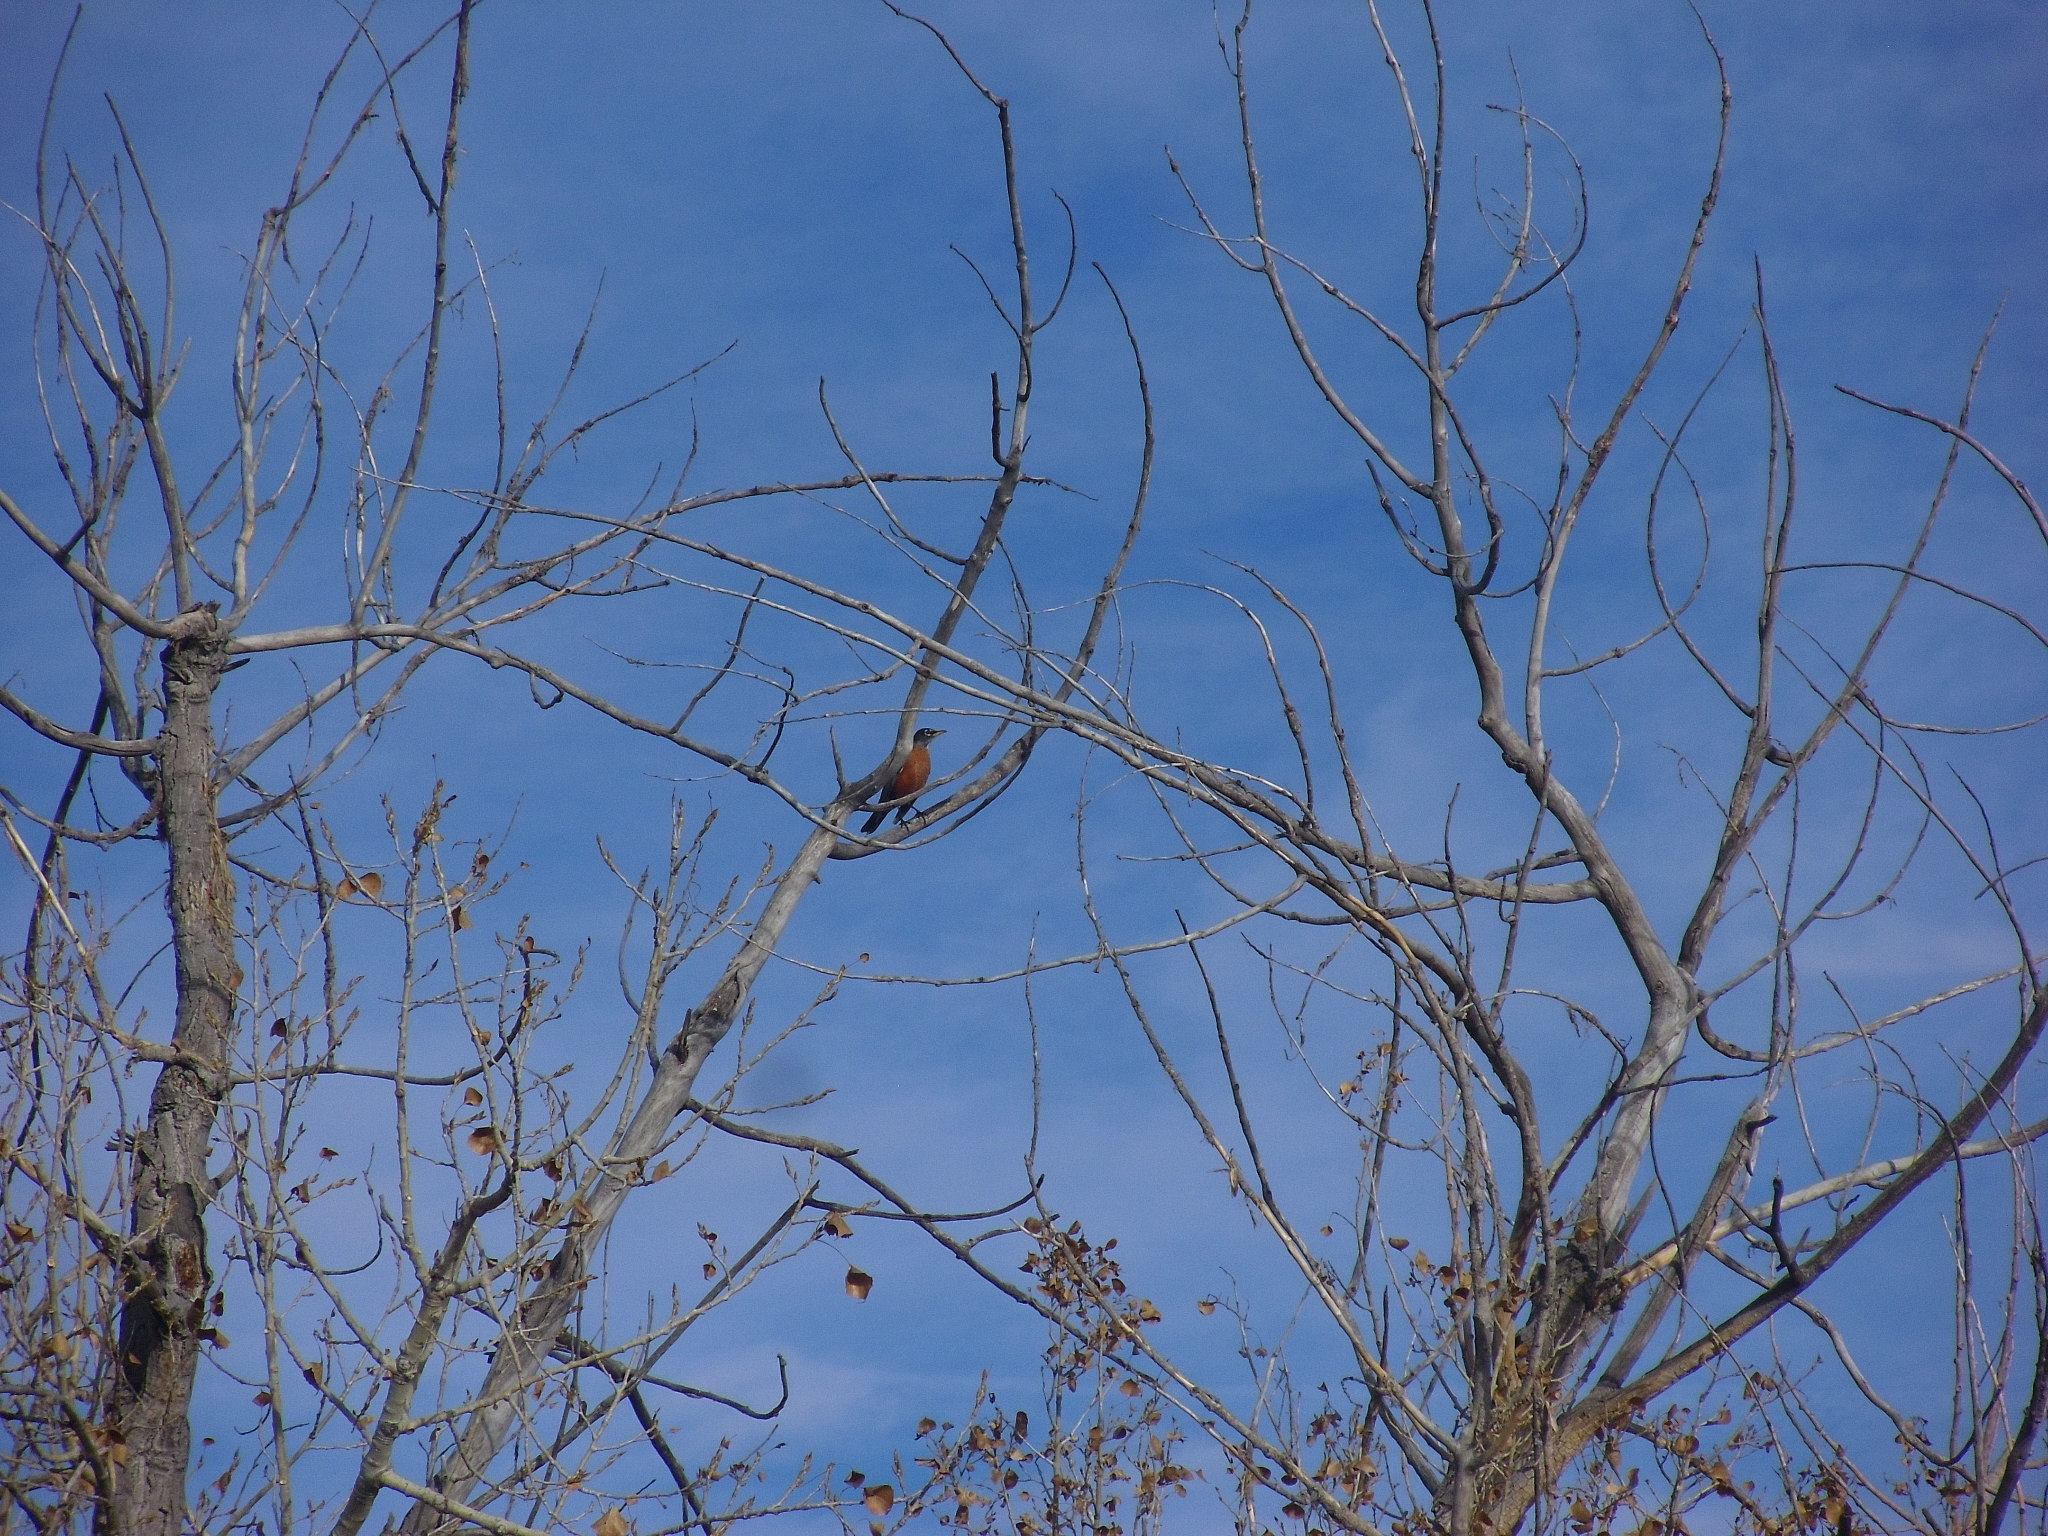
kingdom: Animalia
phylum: Chordata
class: Aves
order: Passeriformes
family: Turdidae
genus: Turdus
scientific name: Turdus migratorius
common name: American robin
